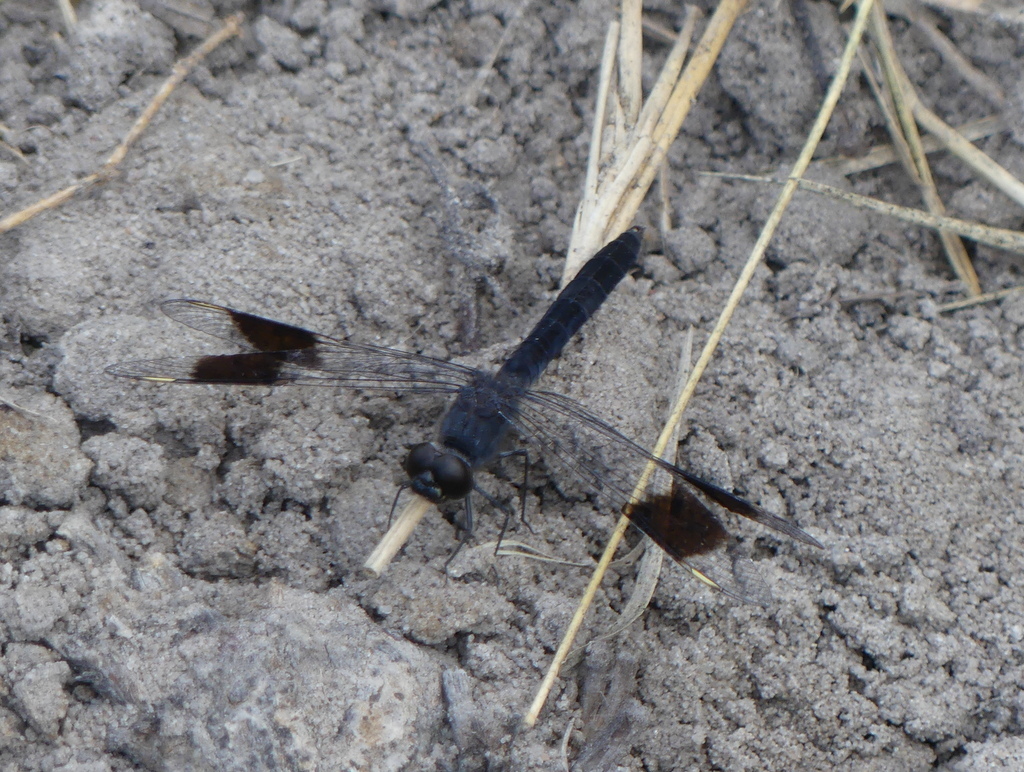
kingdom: Animalia
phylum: Arthropoda
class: Insecta
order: Odonata
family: Libellulidae
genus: Brachythemis
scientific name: Brachythemis leucosticta
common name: Banded groundling
